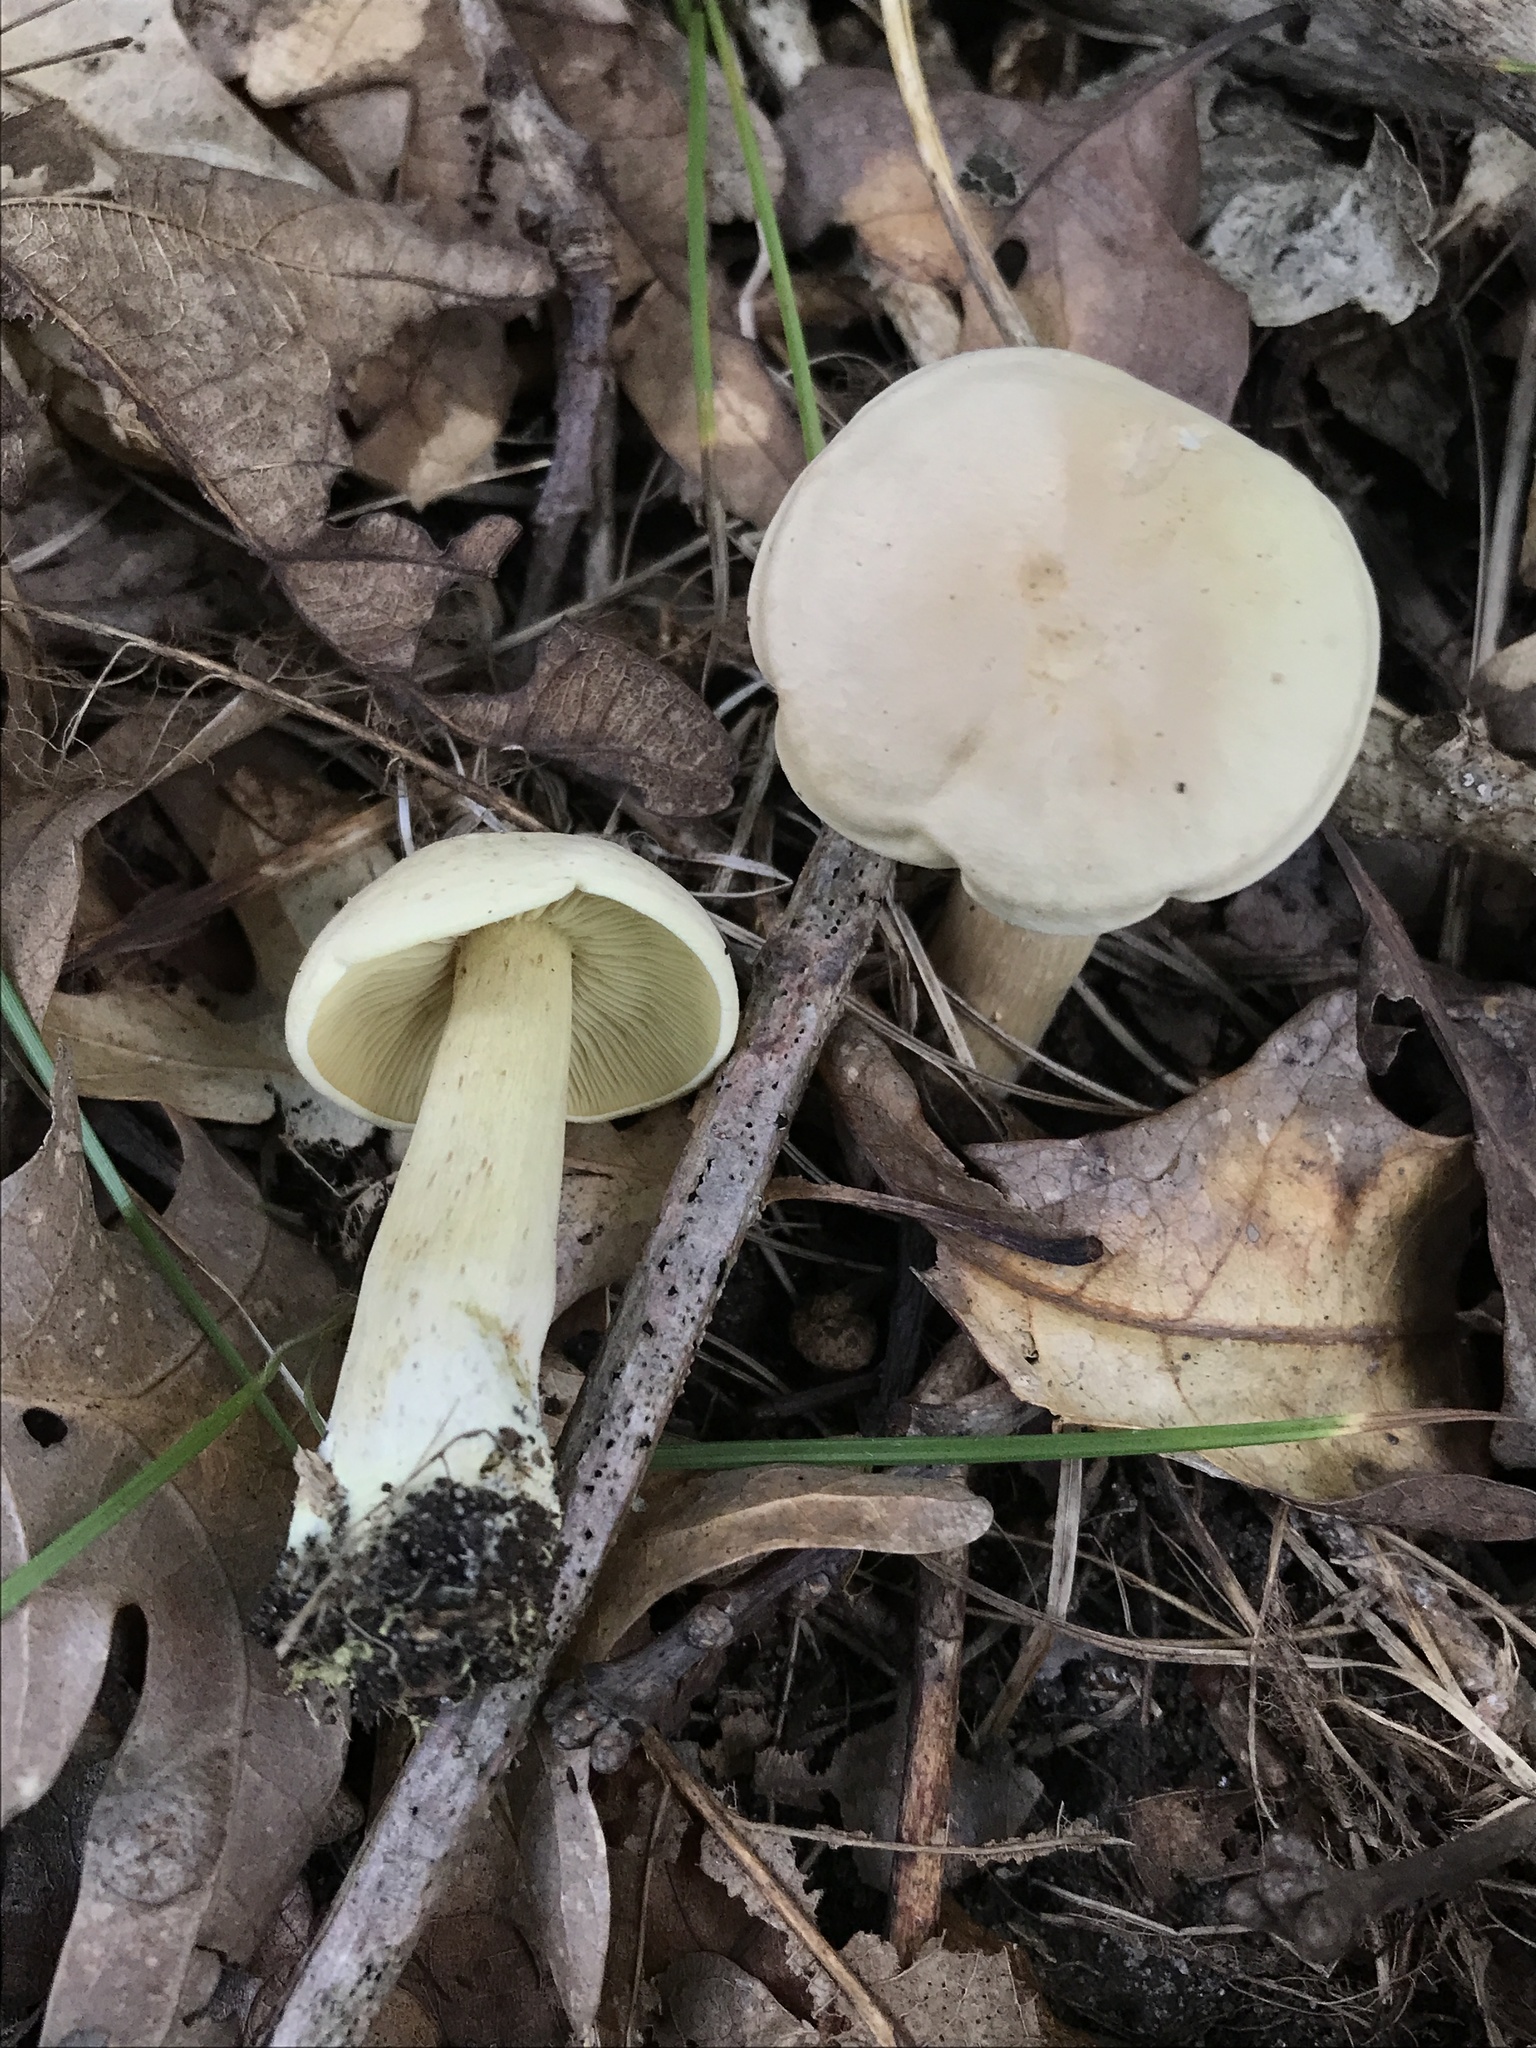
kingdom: Fungi
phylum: Basidiomycota
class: Agaricomycetes
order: Agaricales
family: Tricholomataceae
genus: Tricholoma
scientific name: Tricholoma odorum
